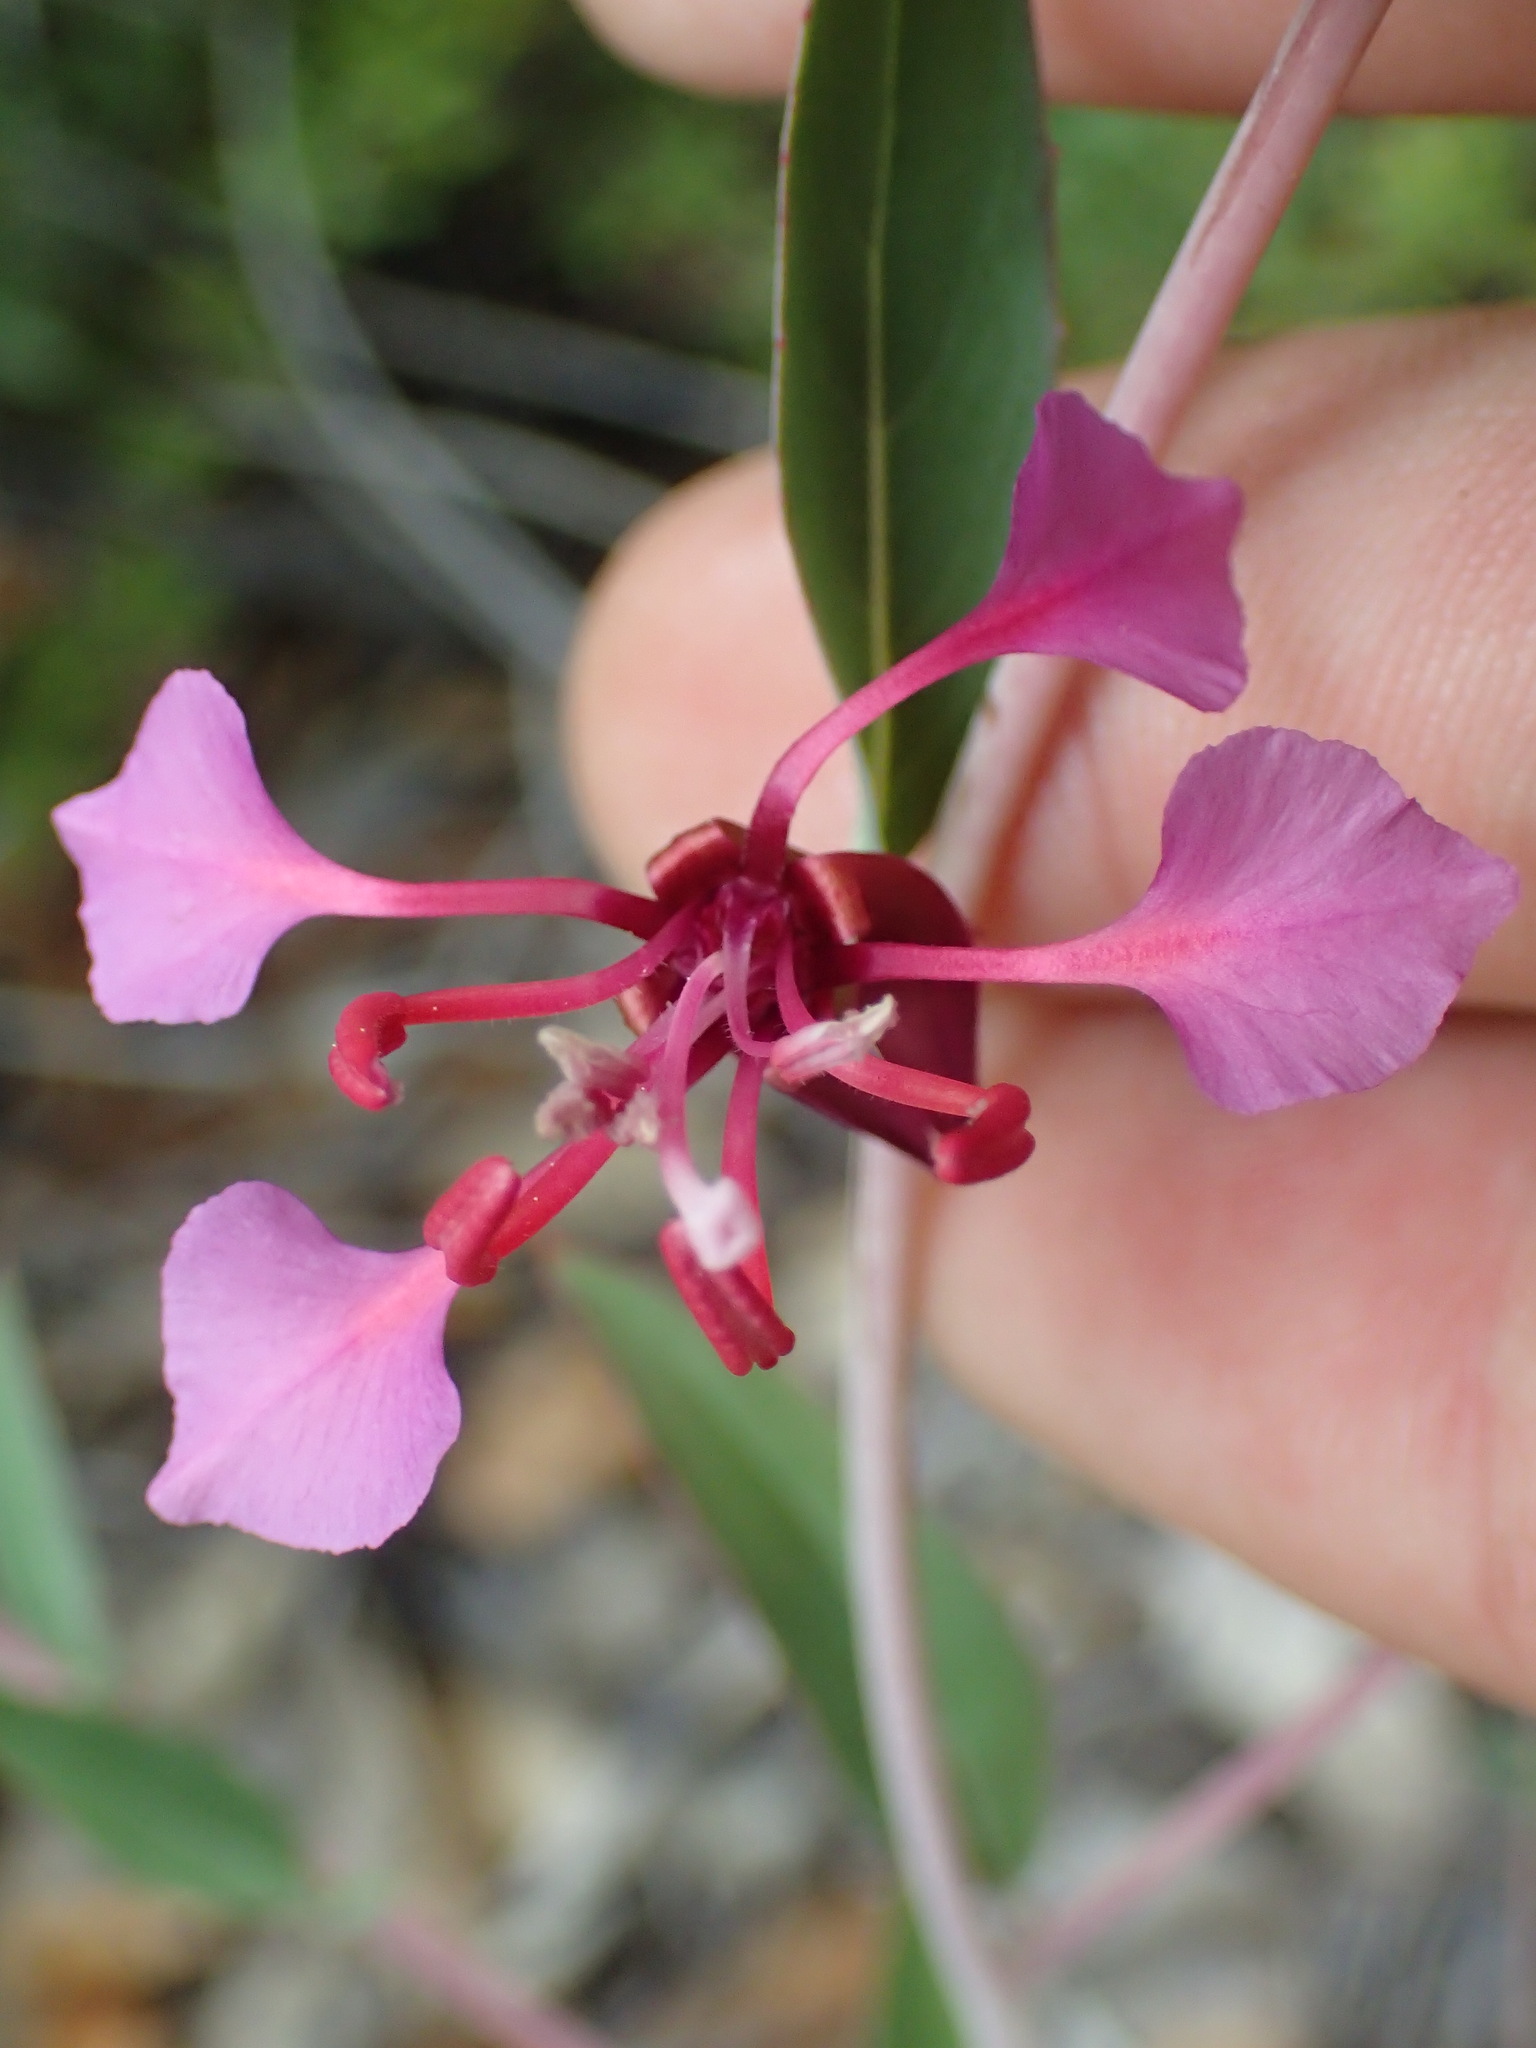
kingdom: Plantae
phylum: Tracheophyta
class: Magnoliopsida
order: Myrtales
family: Onagraceae
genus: Clarkia
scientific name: Clarkia unguiculata
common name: Clarkia
